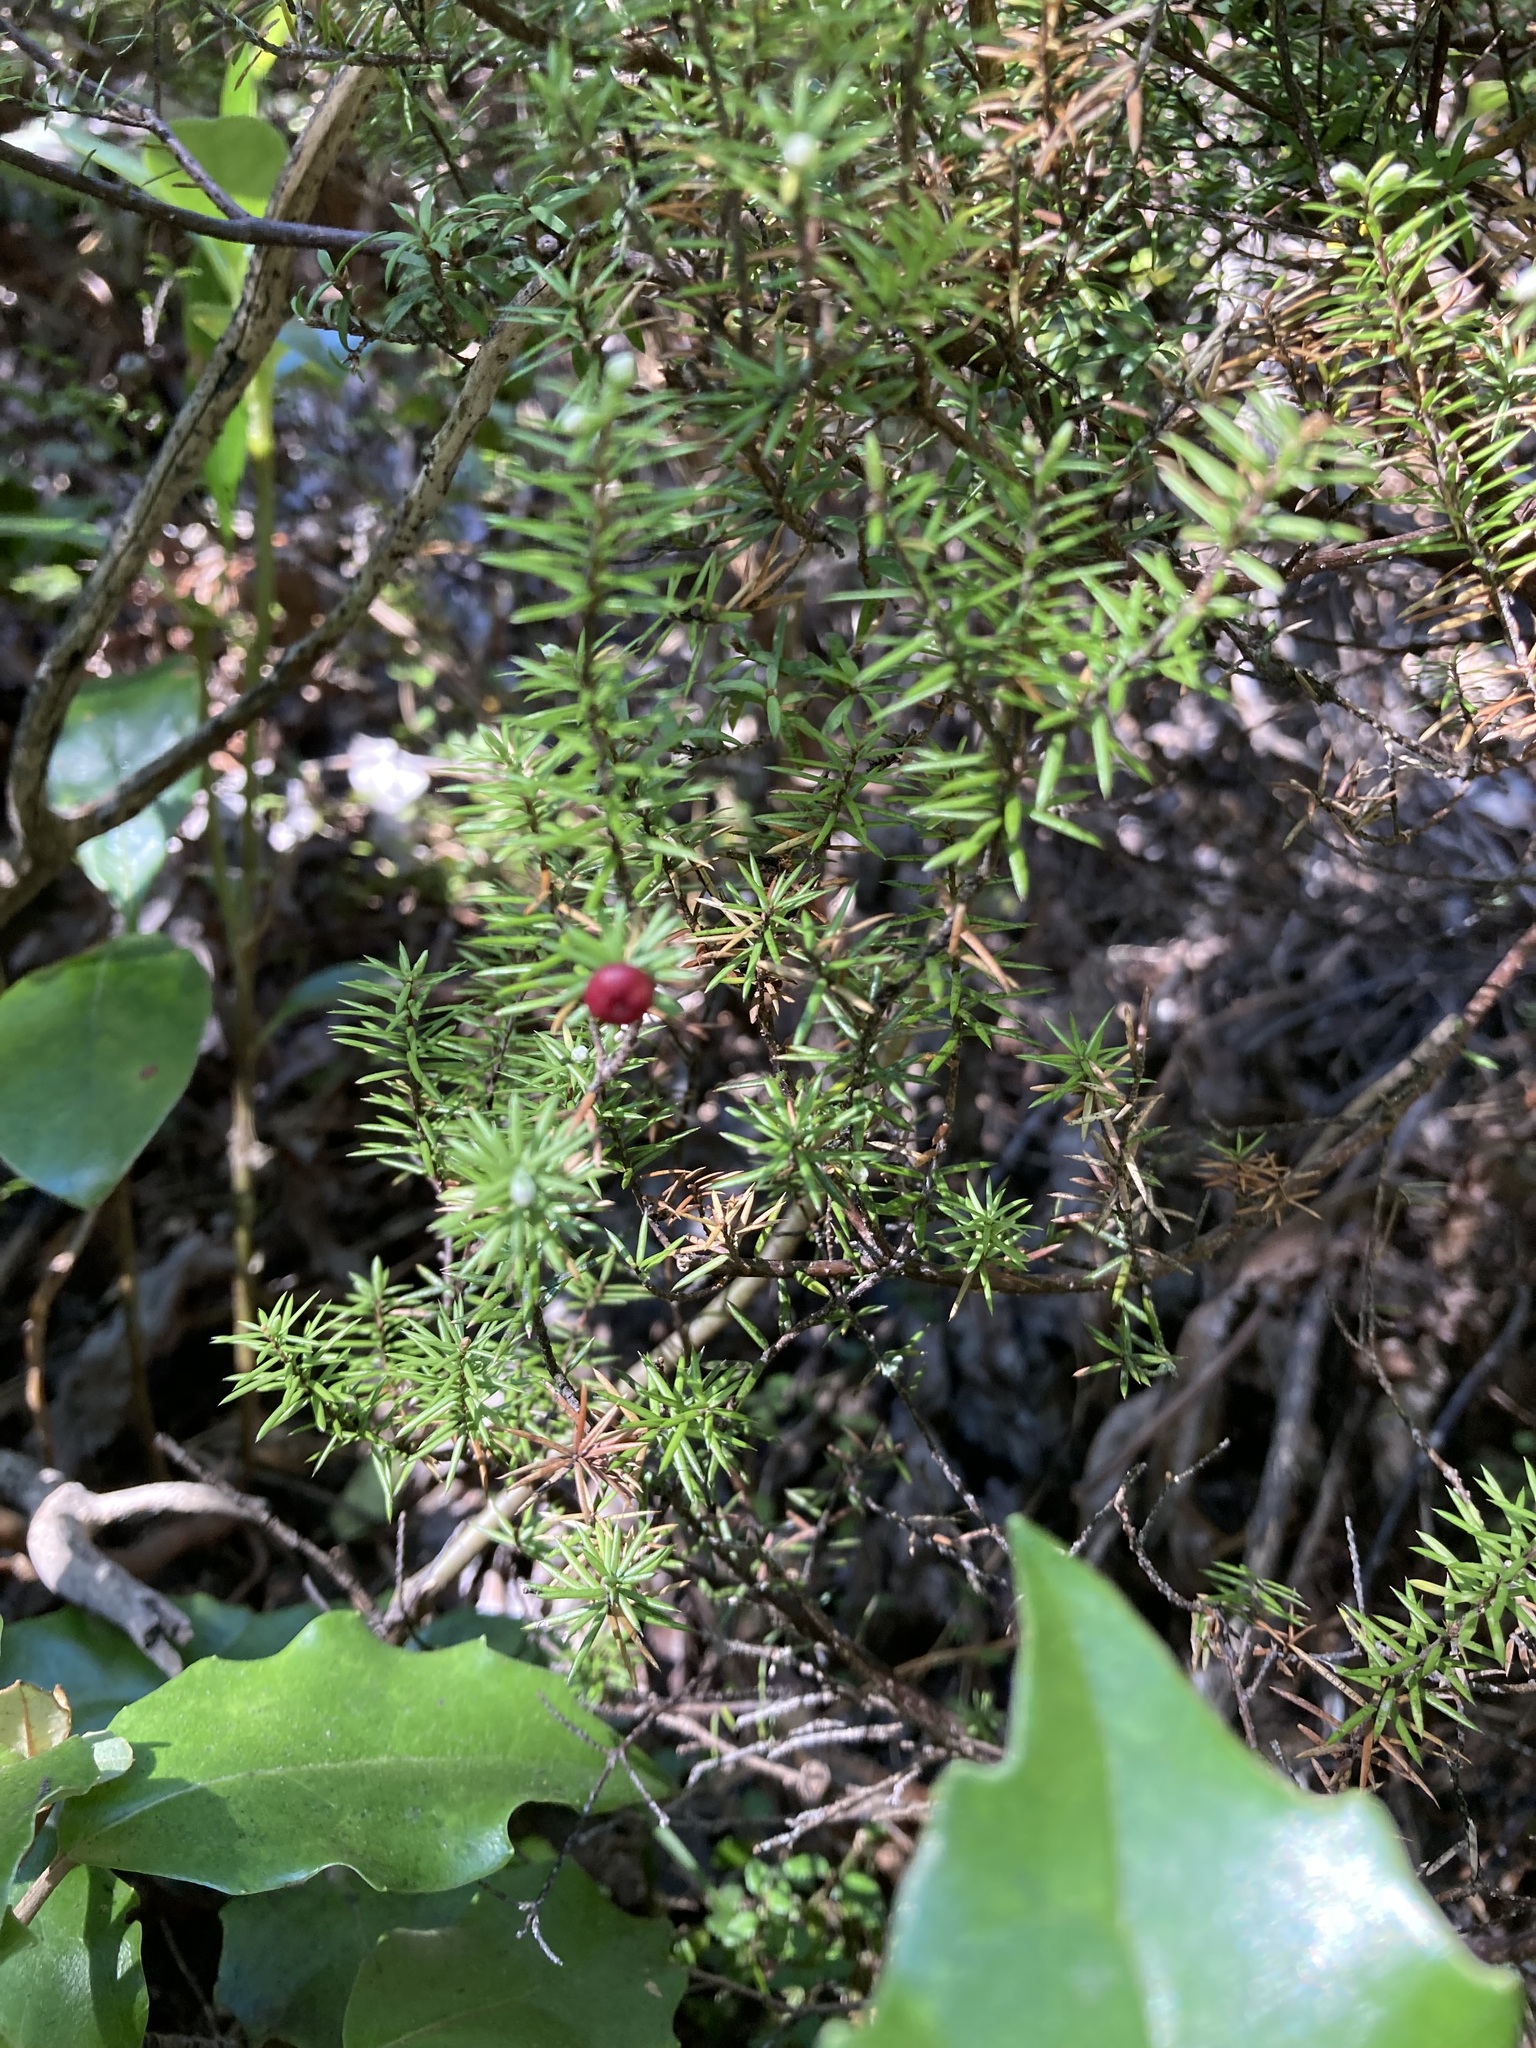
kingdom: Plantae
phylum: Tracheophyta
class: Magnoliopsida
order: Ericales
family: Ericaceae
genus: Leptecophylla
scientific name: Leptecophylla juniperina
